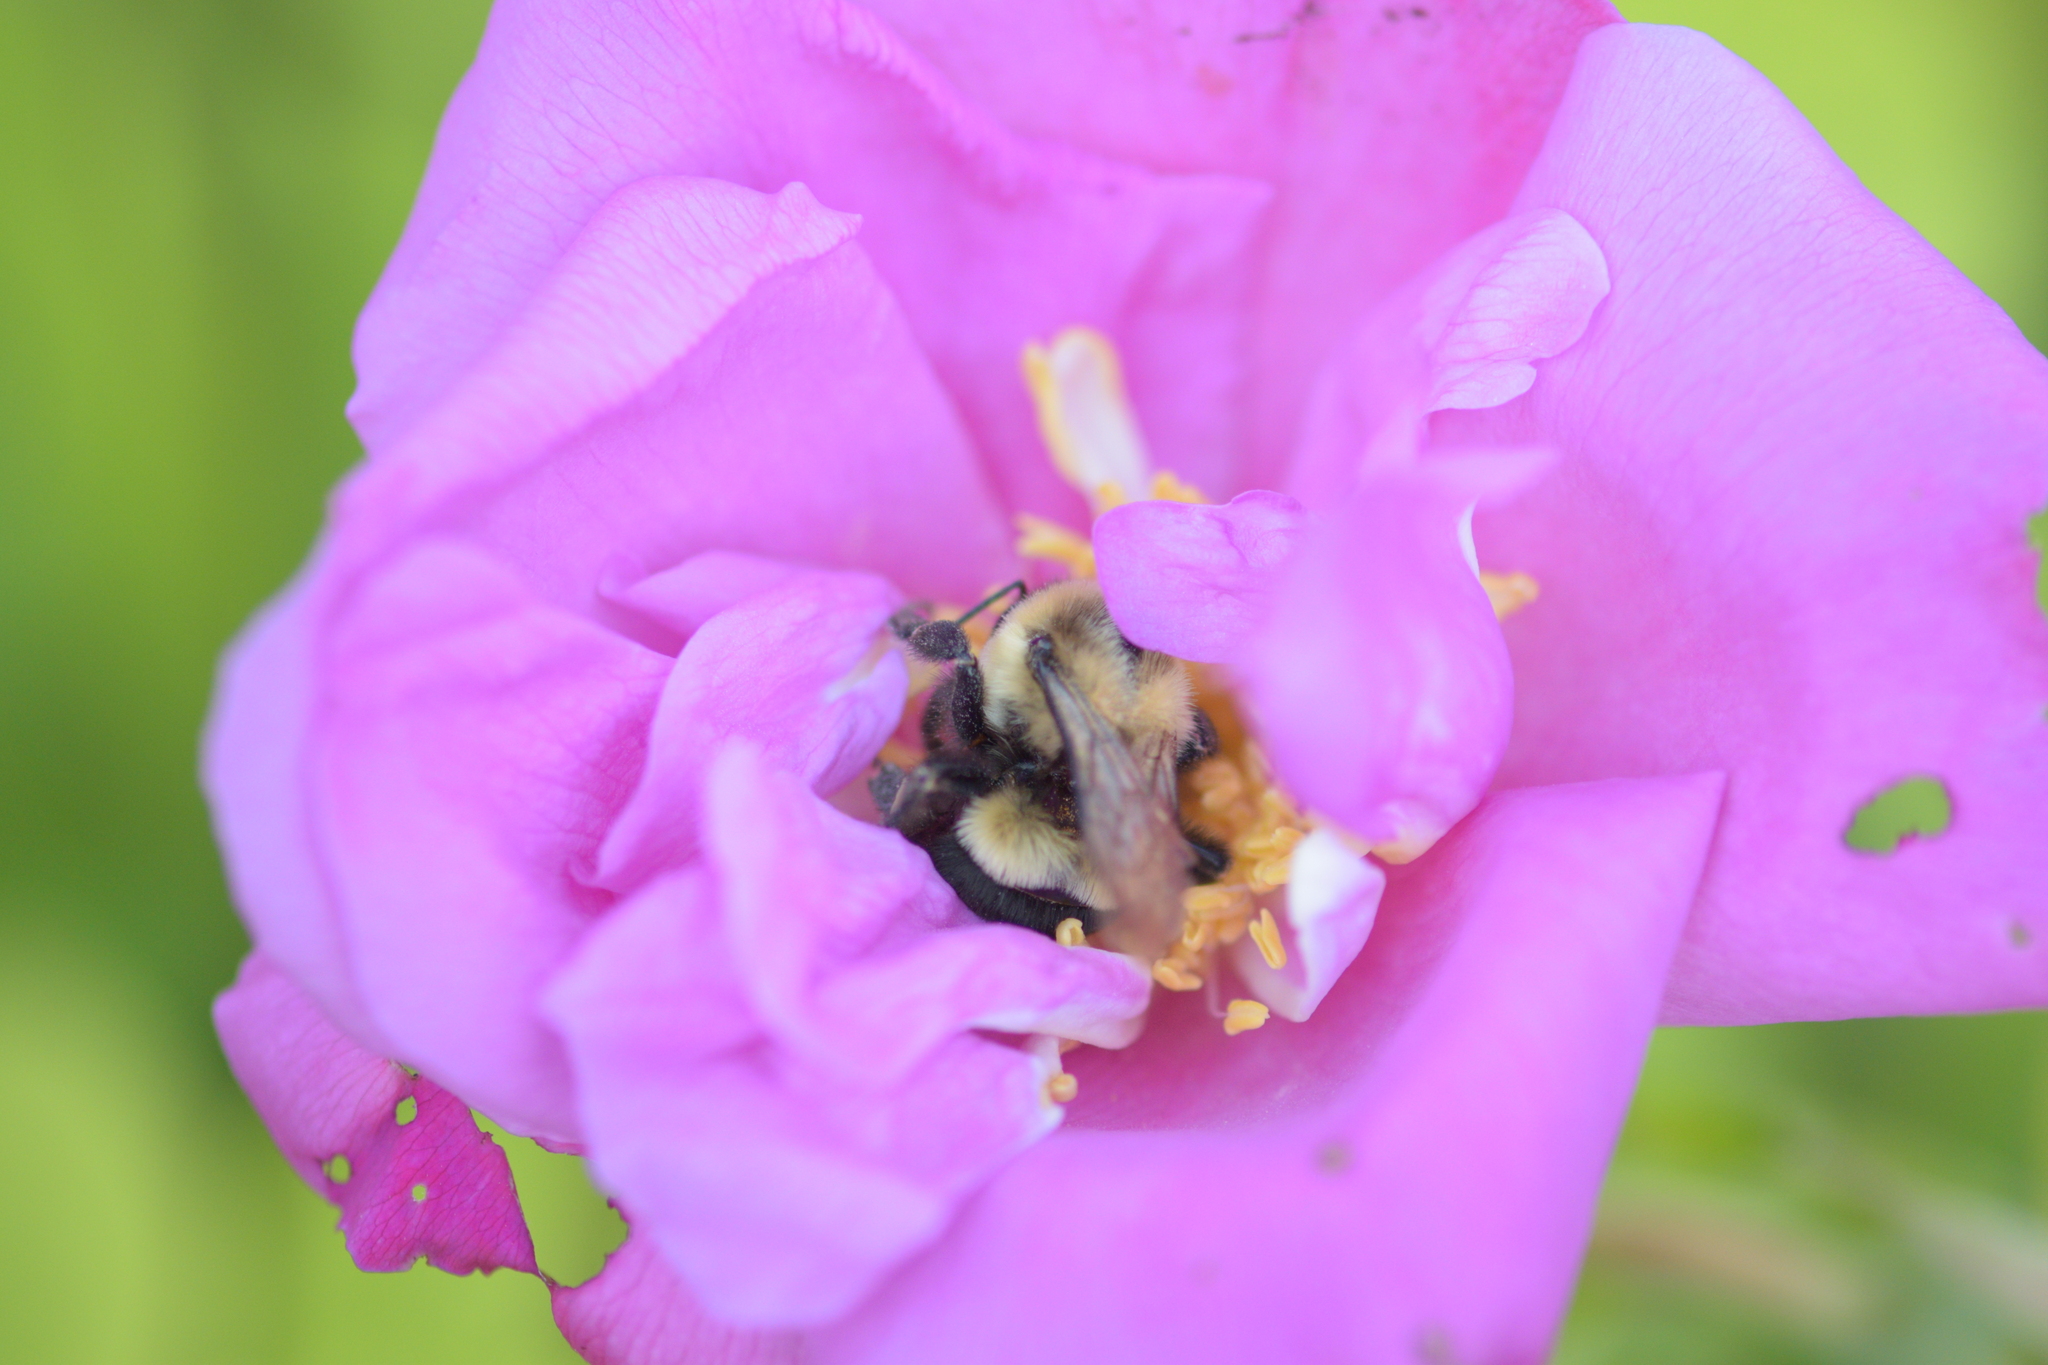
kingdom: Animalia
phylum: Arthropoda
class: Insecta
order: Hymenoptera
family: Apidae
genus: Bombus
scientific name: Bombus impatiens
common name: Common eastern bumble bee
